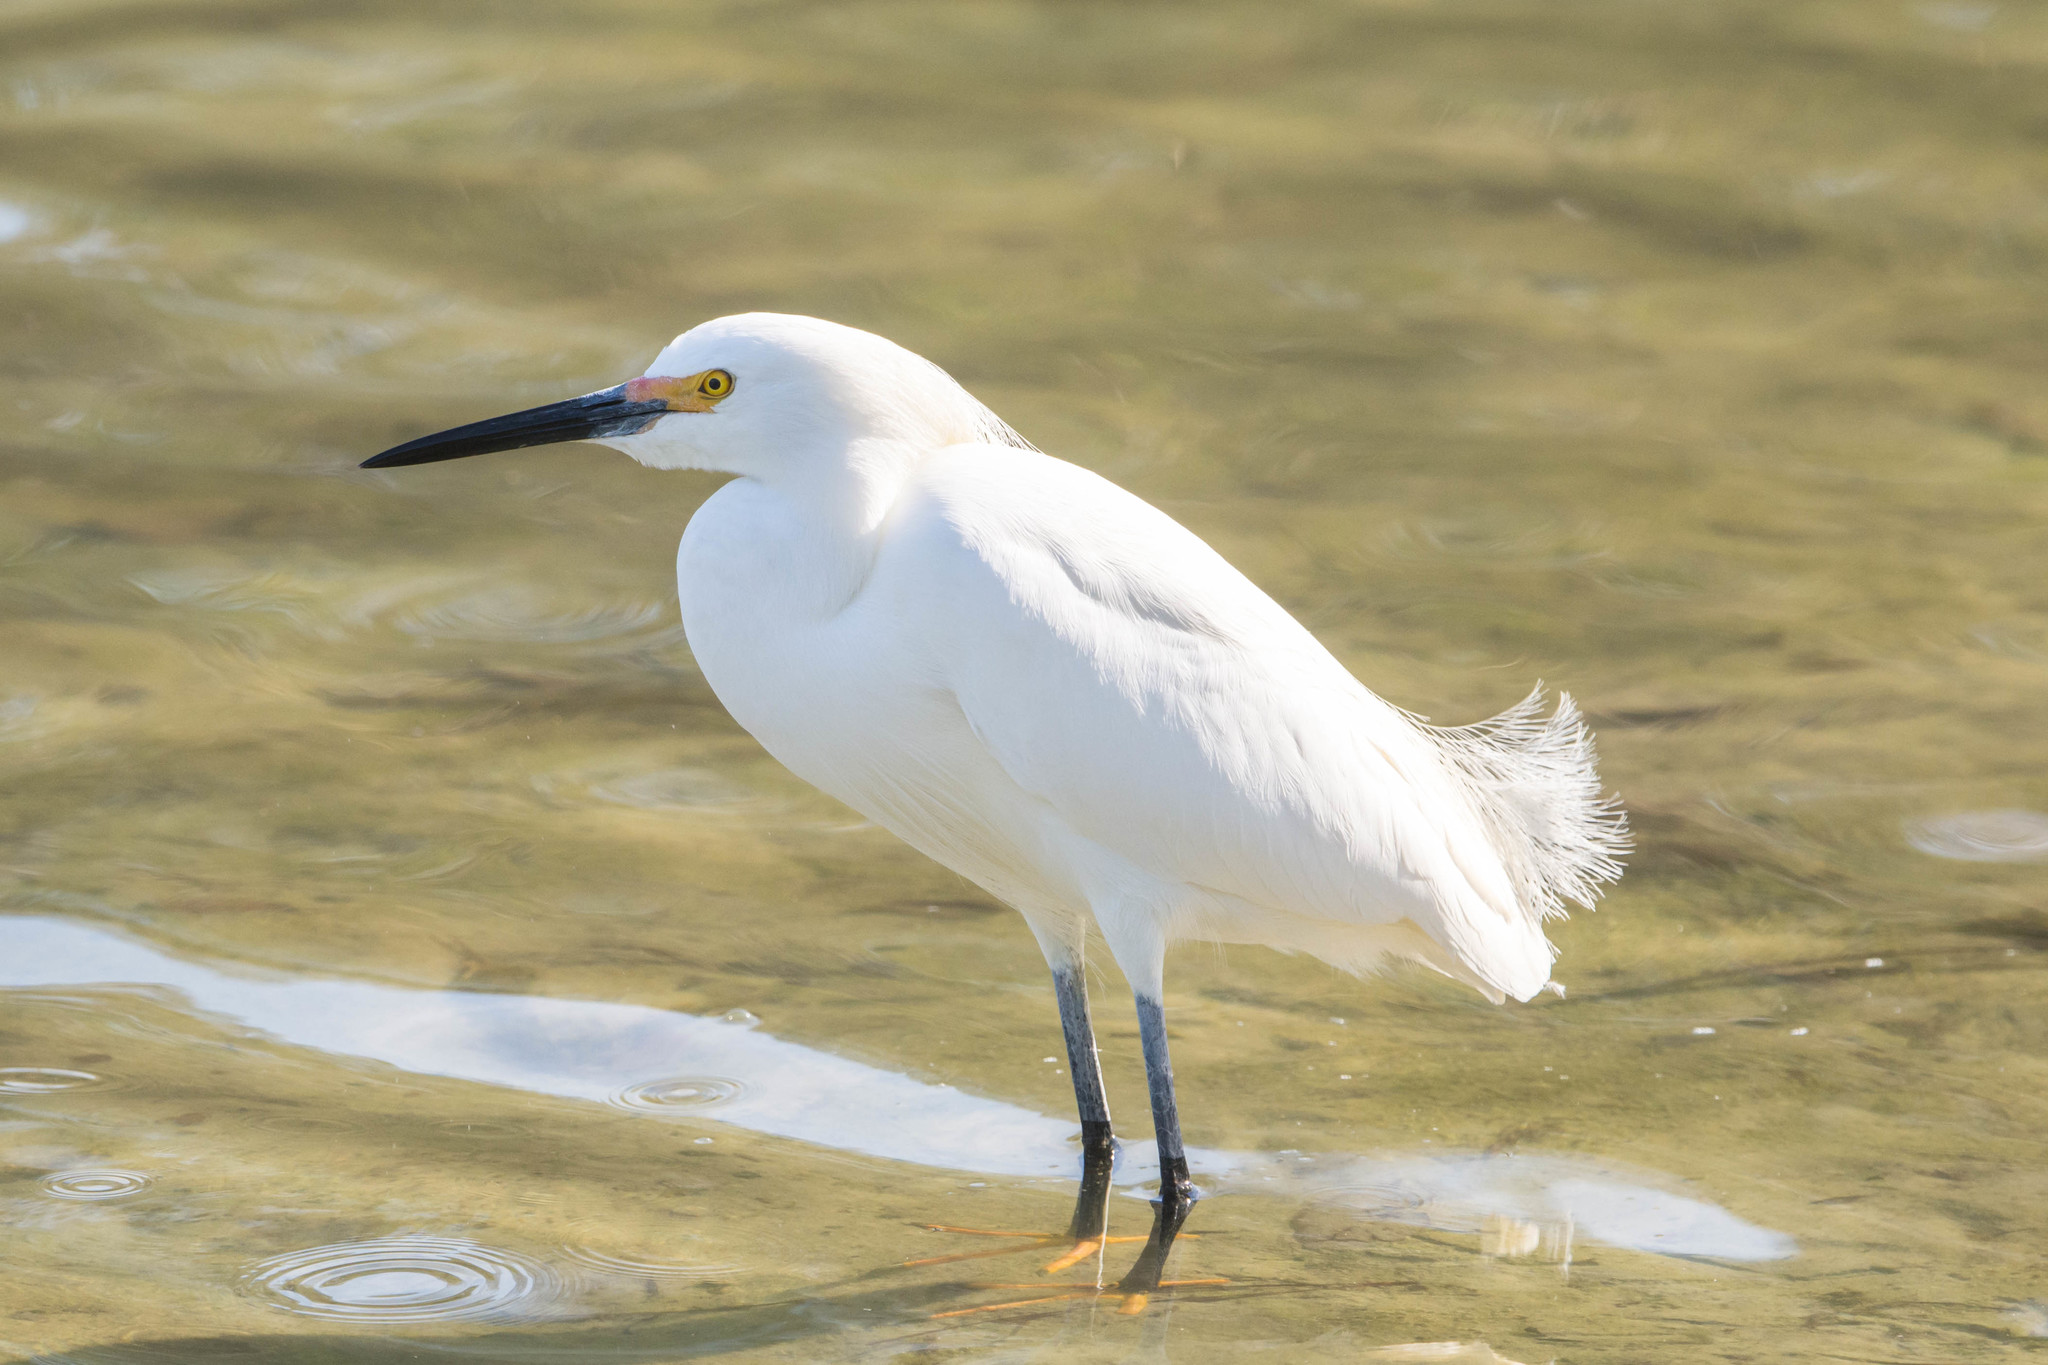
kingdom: Animalia
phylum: Chordata
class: Aves
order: Pelecaniformes
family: Ardeidae
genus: Egretta
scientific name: Egretta thula
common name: Snowy egret
